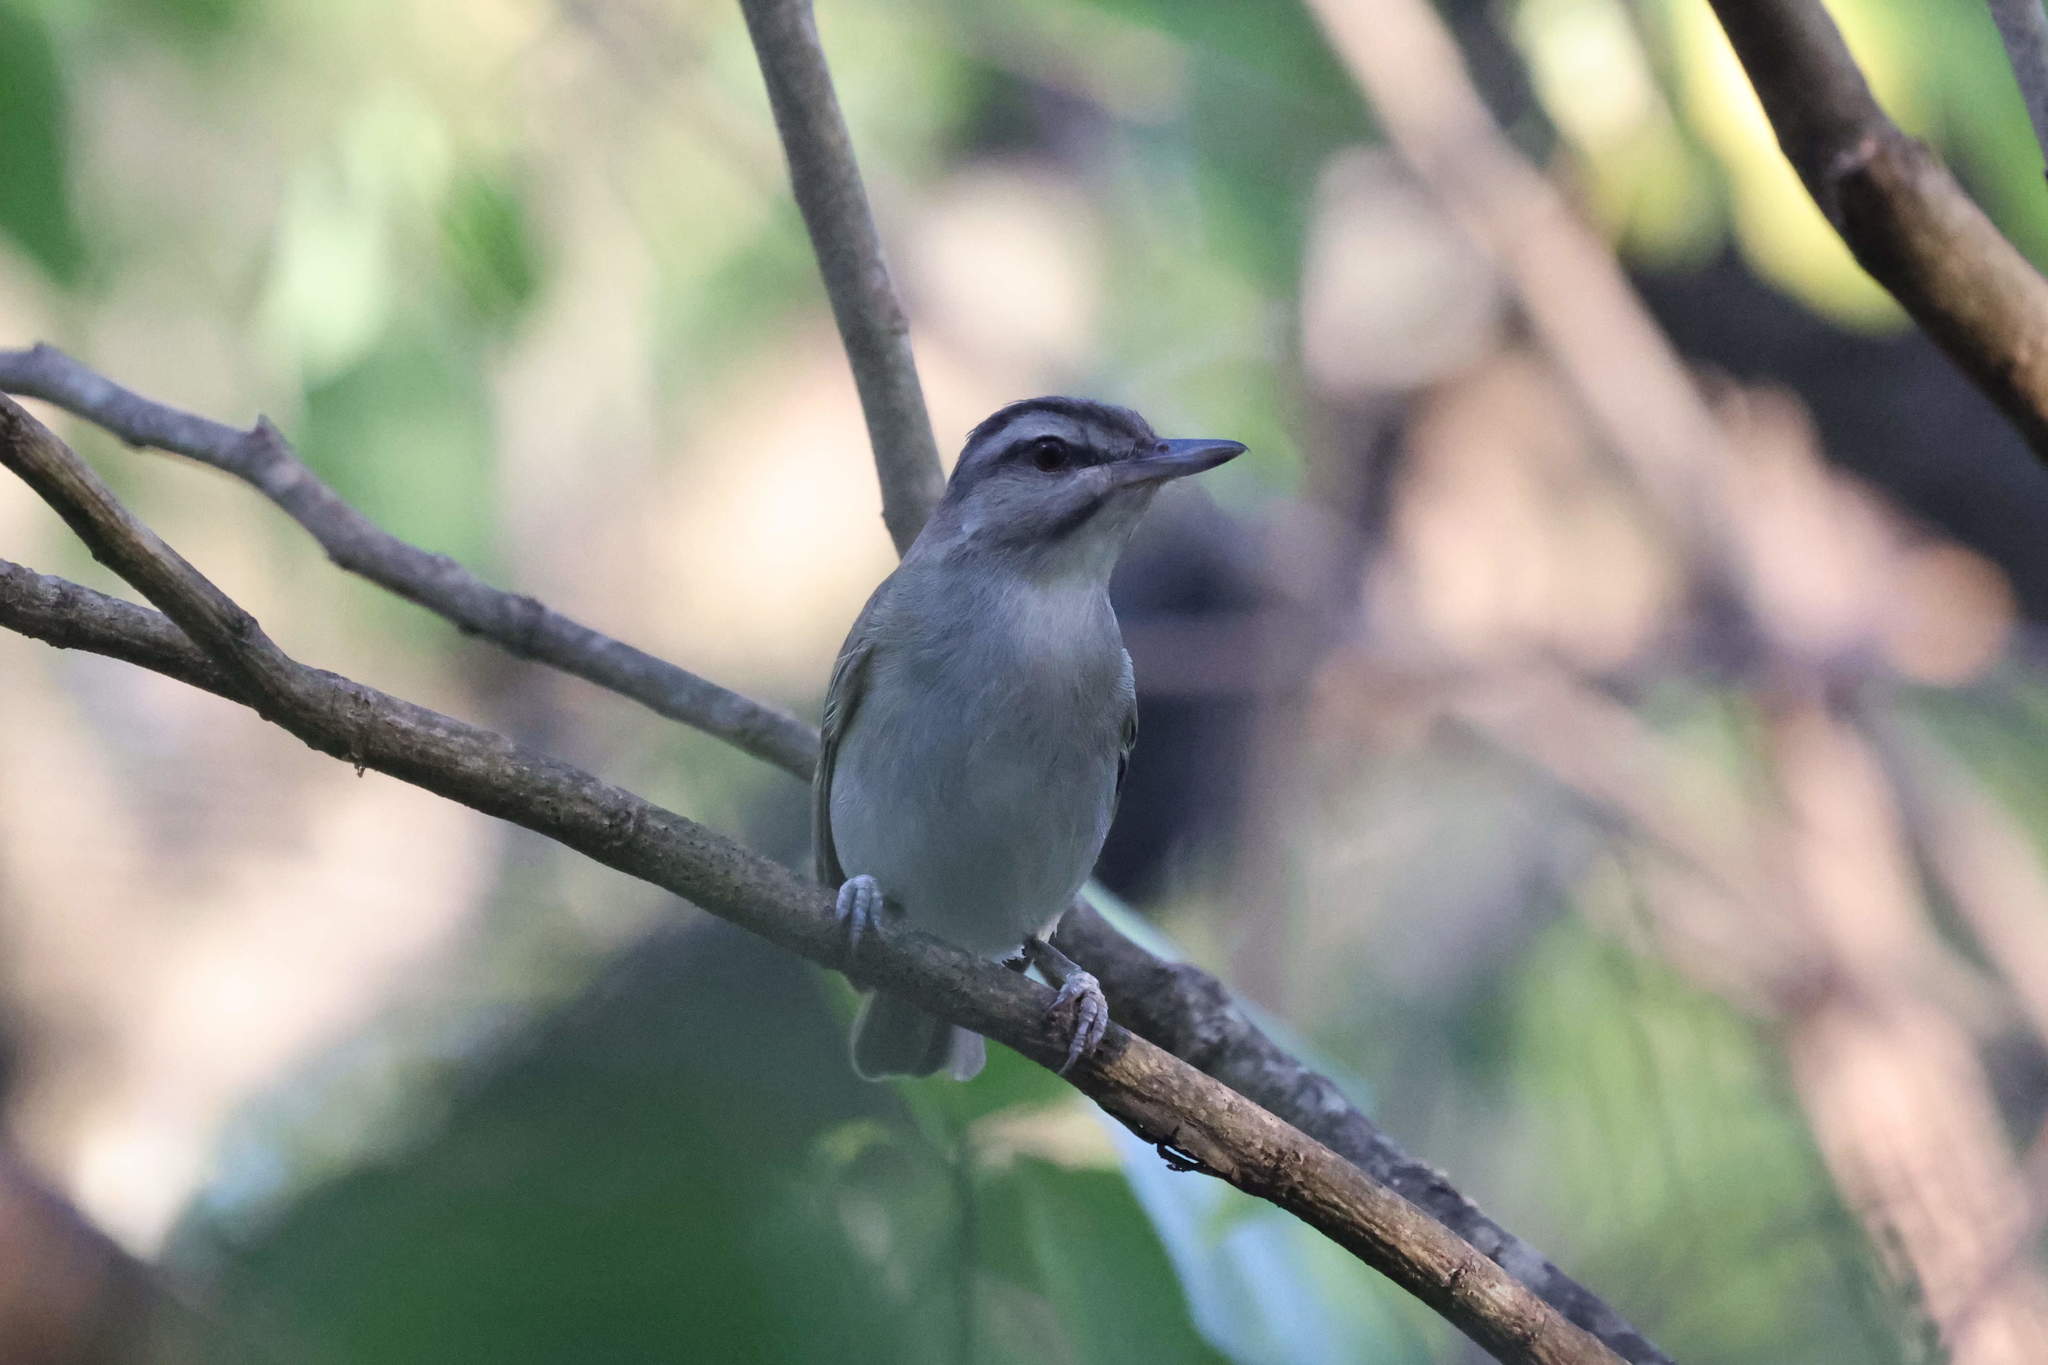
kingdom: Animalia
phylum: Chordata
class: Aves
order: Passeriformes
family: Vireonidae
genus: Vireo
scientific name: Vireo altiloquus
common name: Black-whiskered vireo
